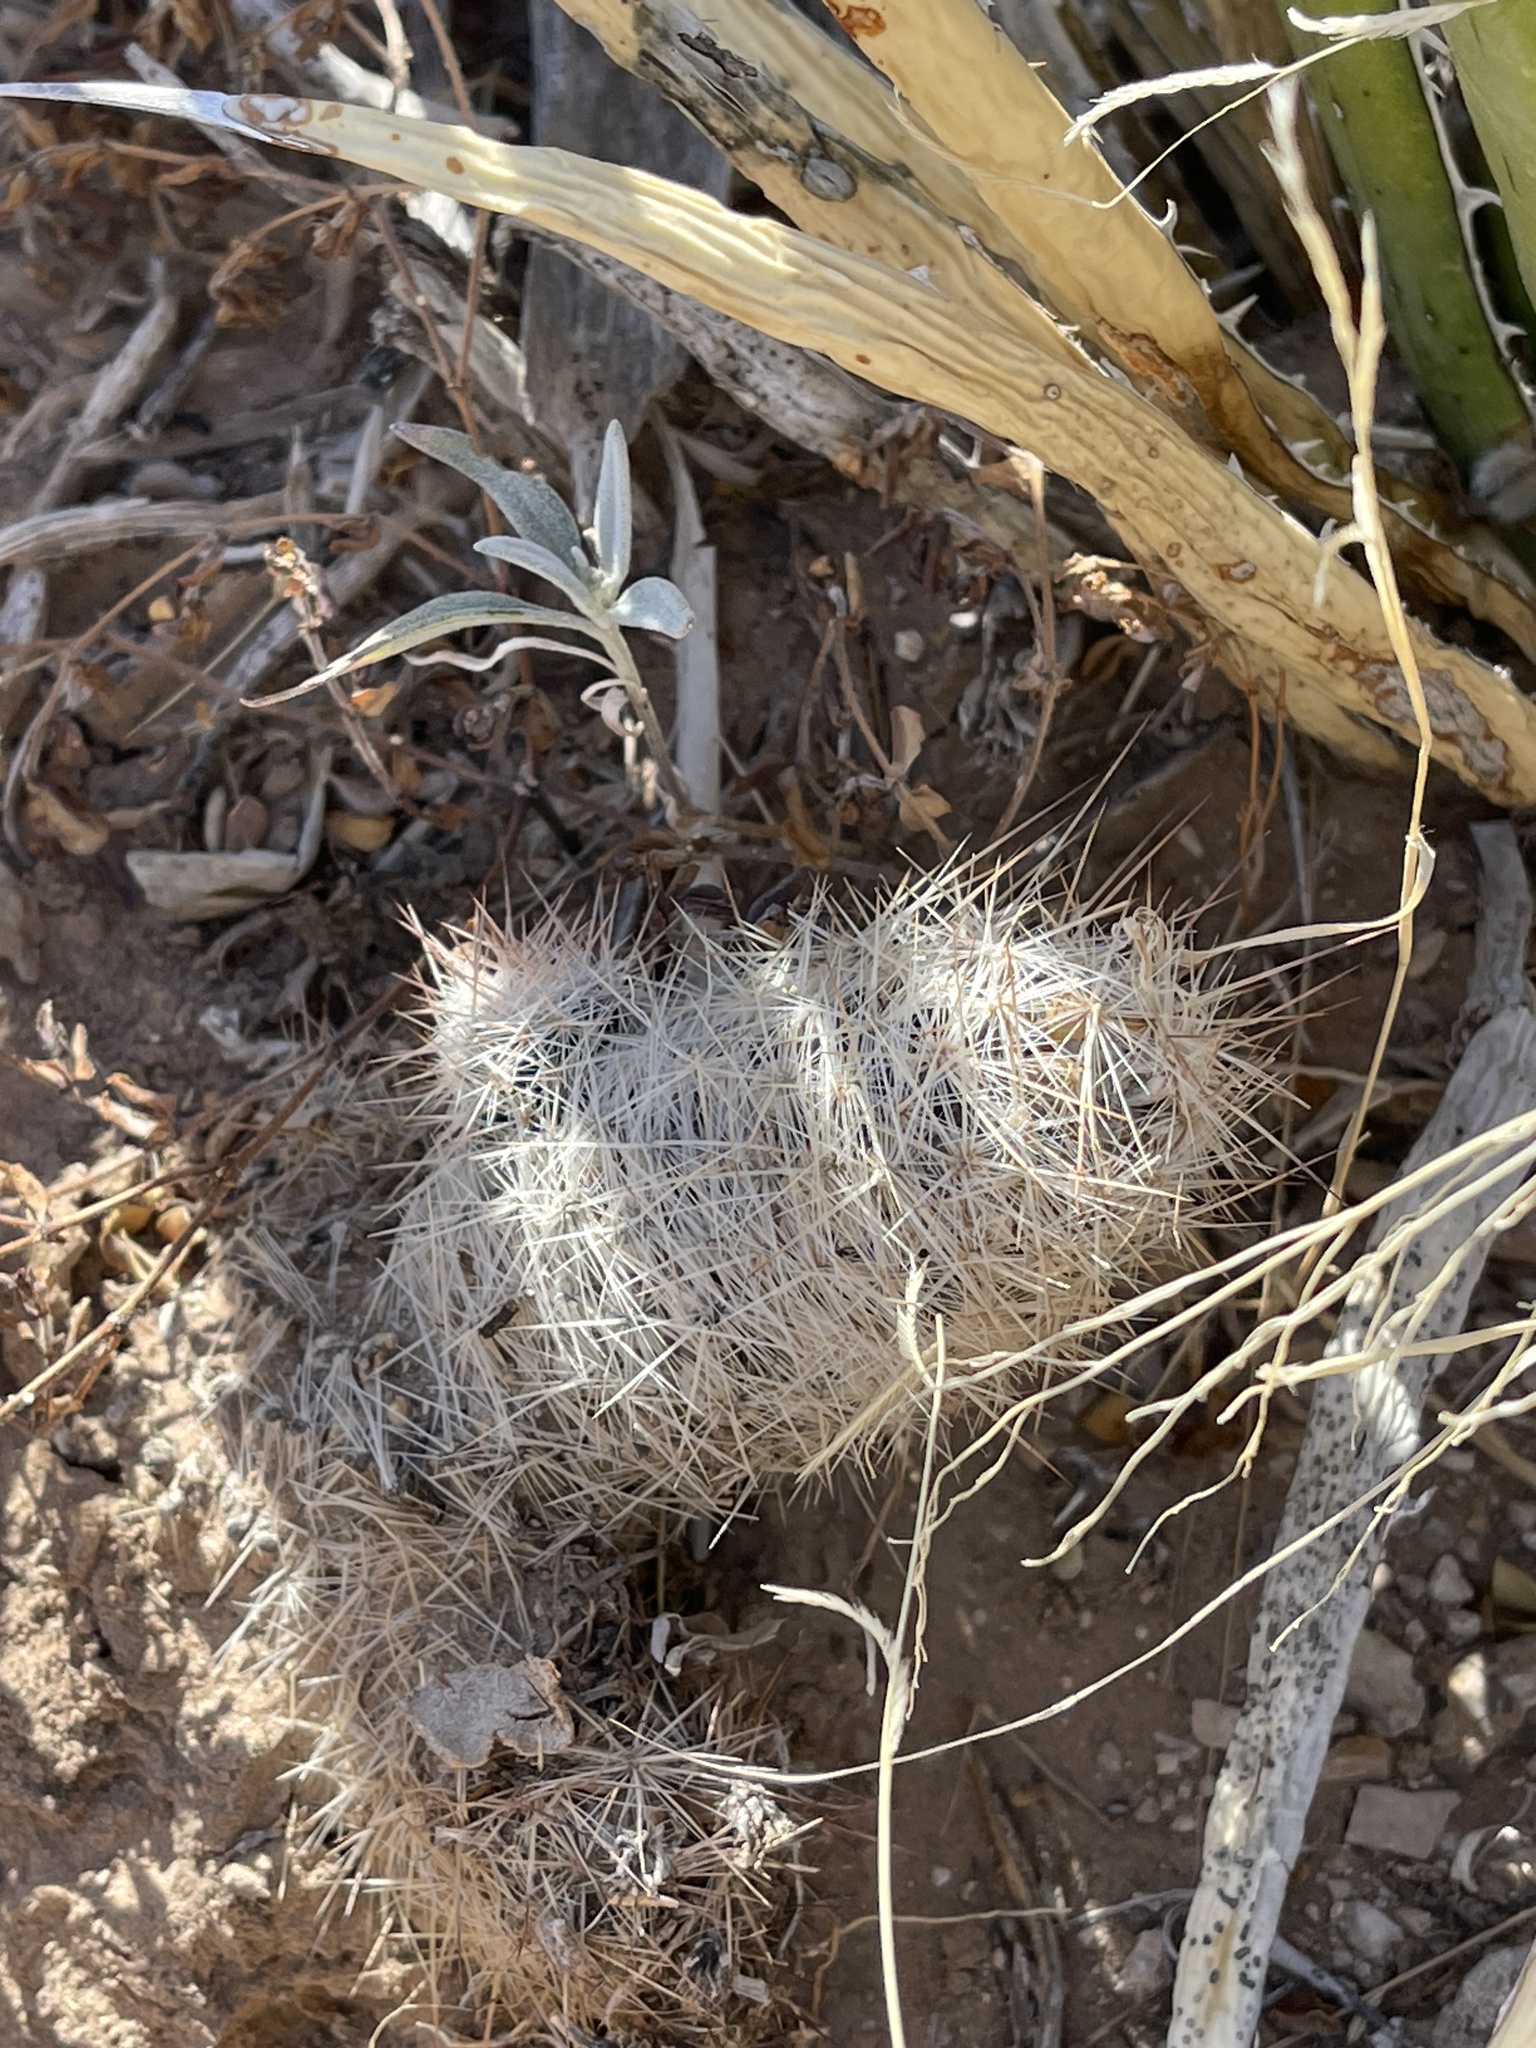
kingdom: Plantae
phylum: Tracheophyta
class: Magnoliopsida
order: Caryophyllales
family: Cactaceae
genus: Pelecyphora
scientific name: Pelecyphora tuberculosa
